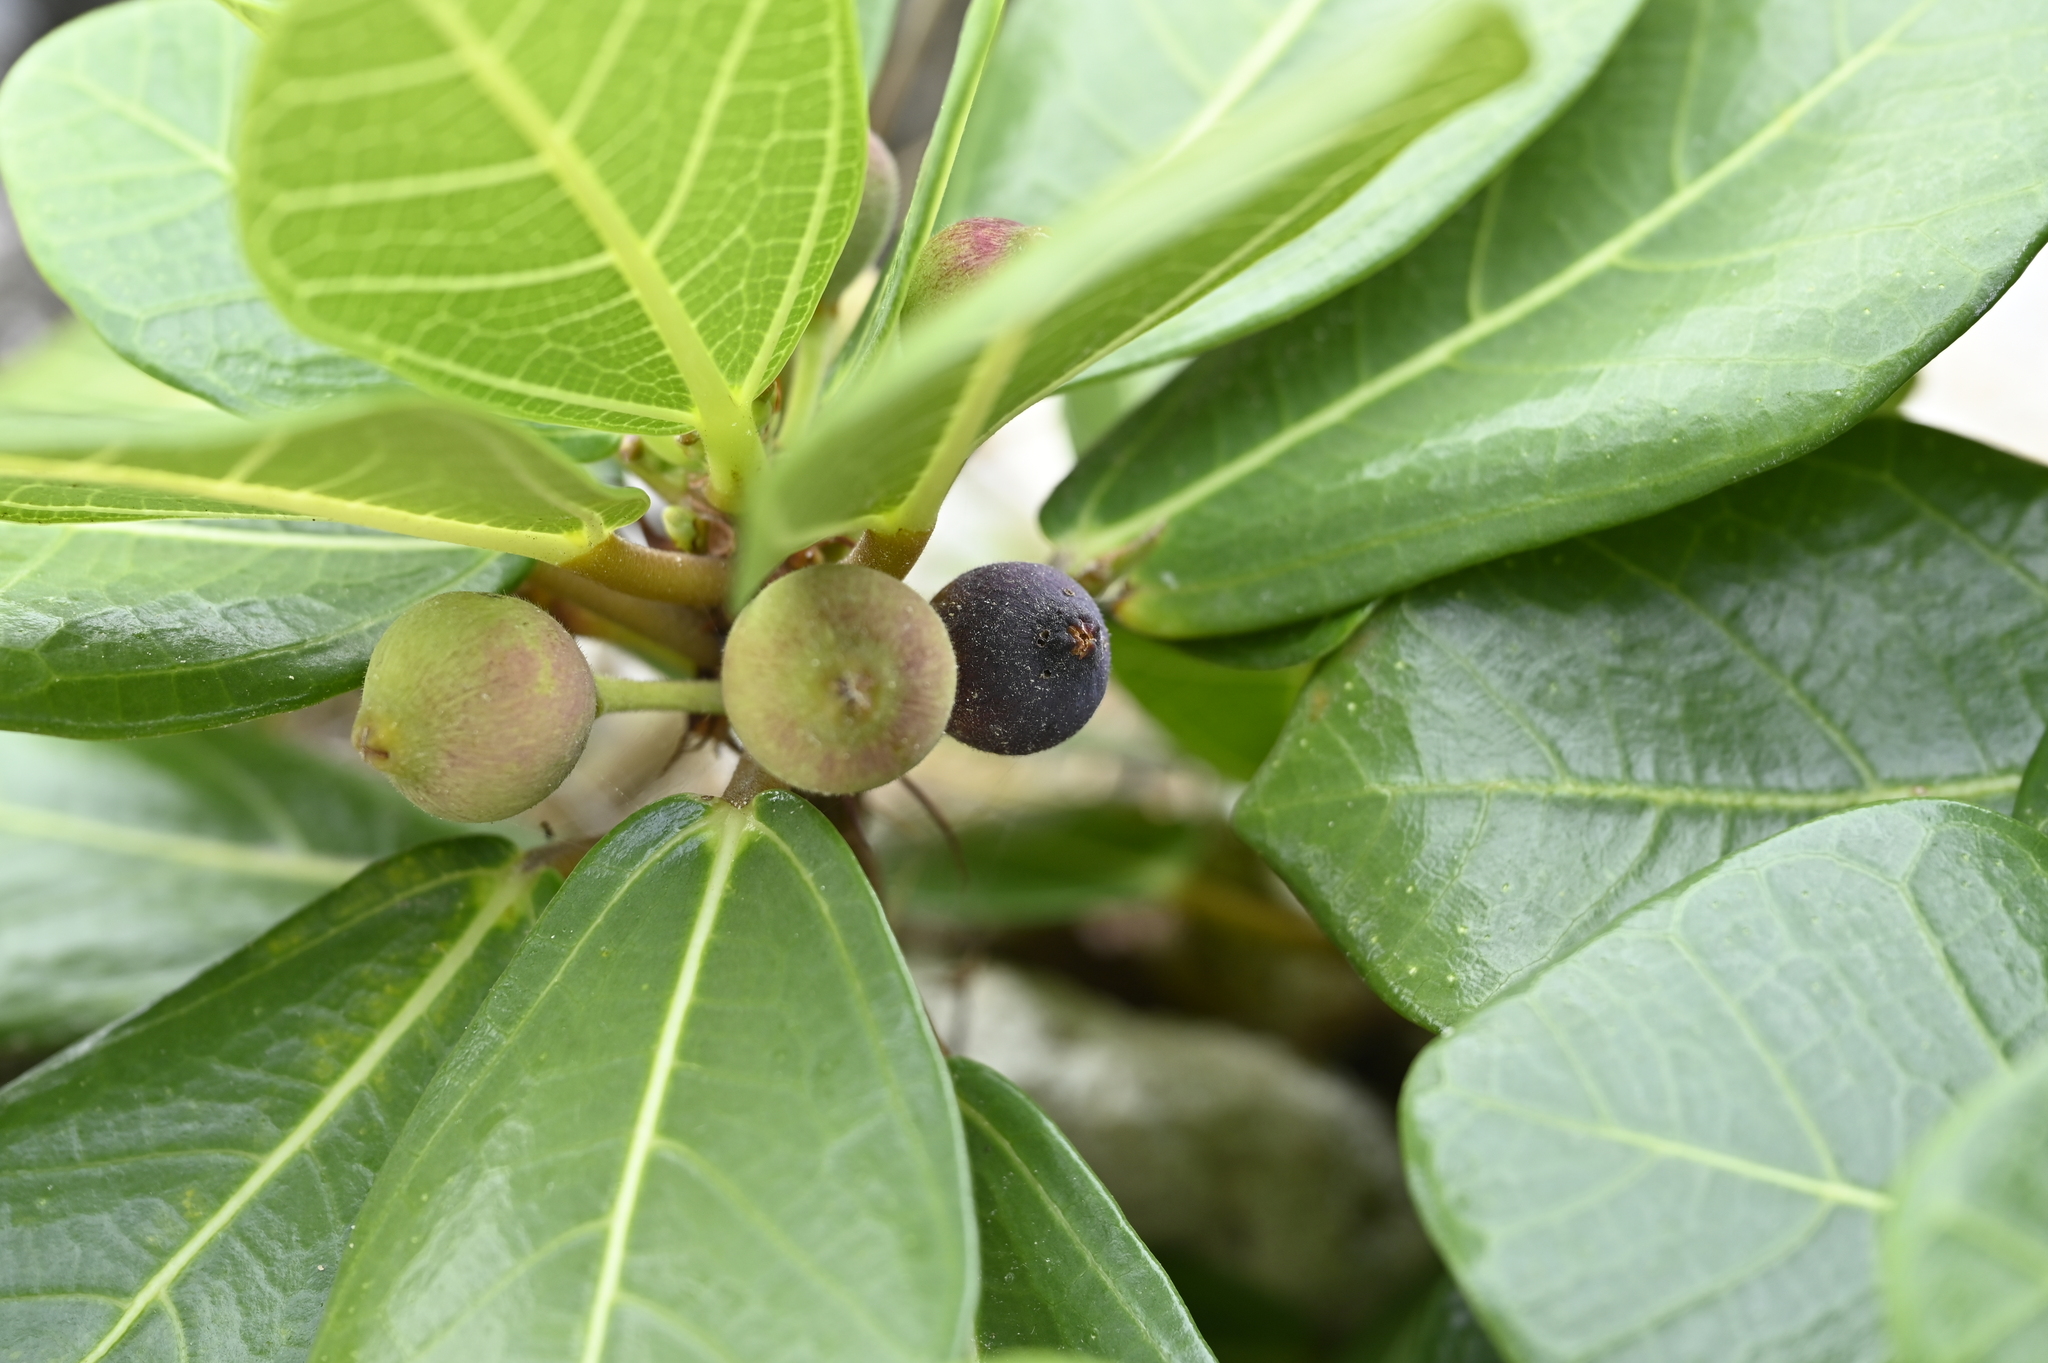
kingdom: Plantae
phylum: Tracheophyta
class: Magnoliopsida
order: Rosales
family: Moraceae
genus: Ficus
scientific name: Ficus pedunculosa
